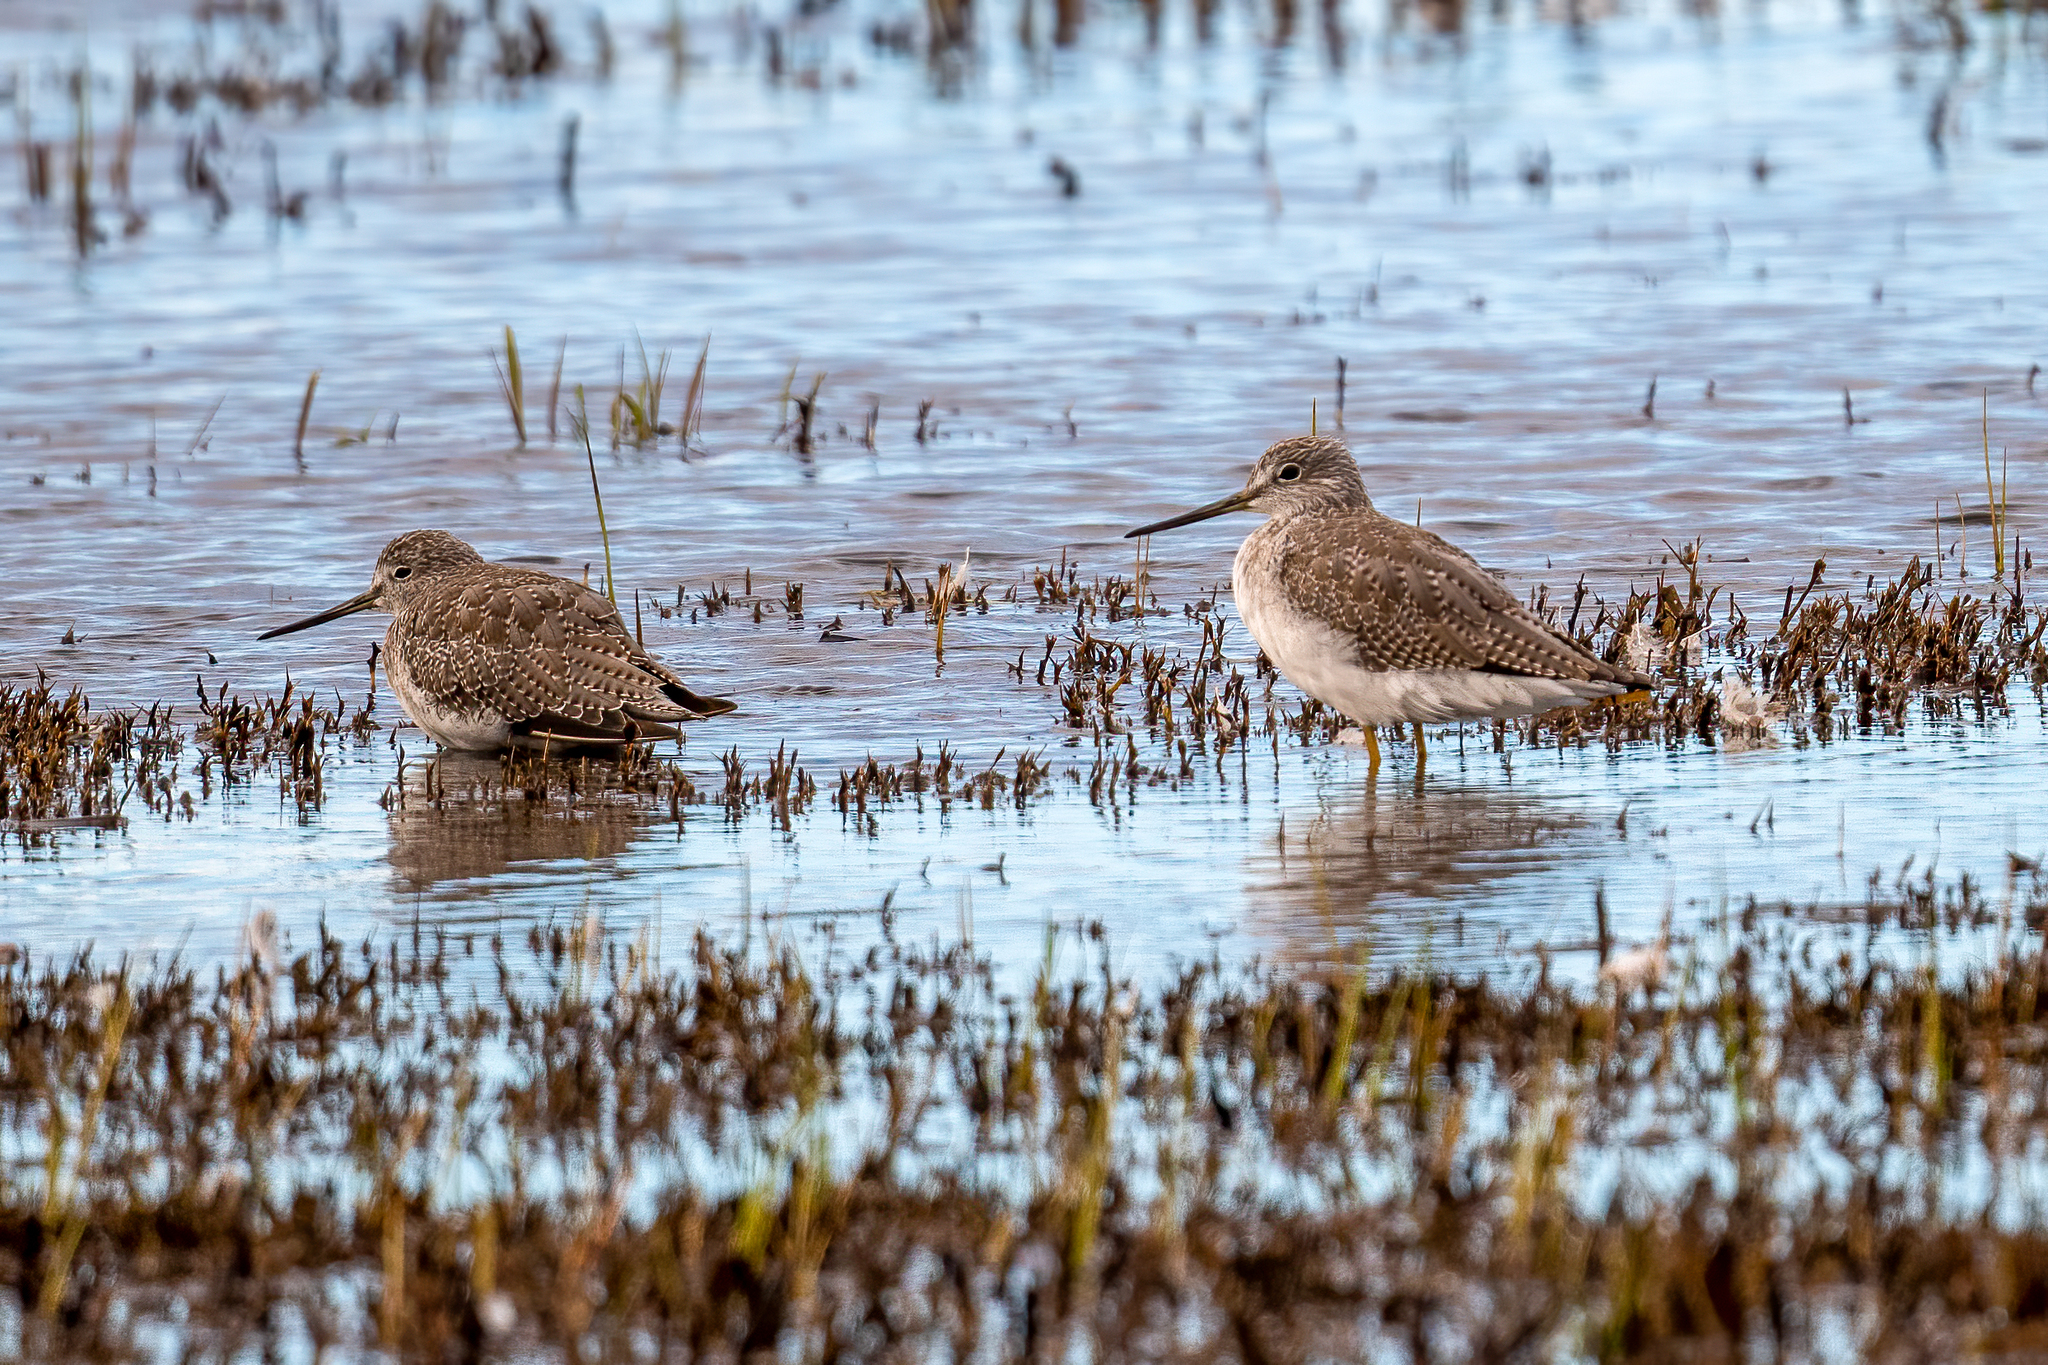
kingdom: Animalia
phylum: Chordata
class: Aves
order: Charadriiformes
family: Scolopacidae
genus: Tringa
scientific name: Tringa melanoleuca
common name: Greater yellowlegs
